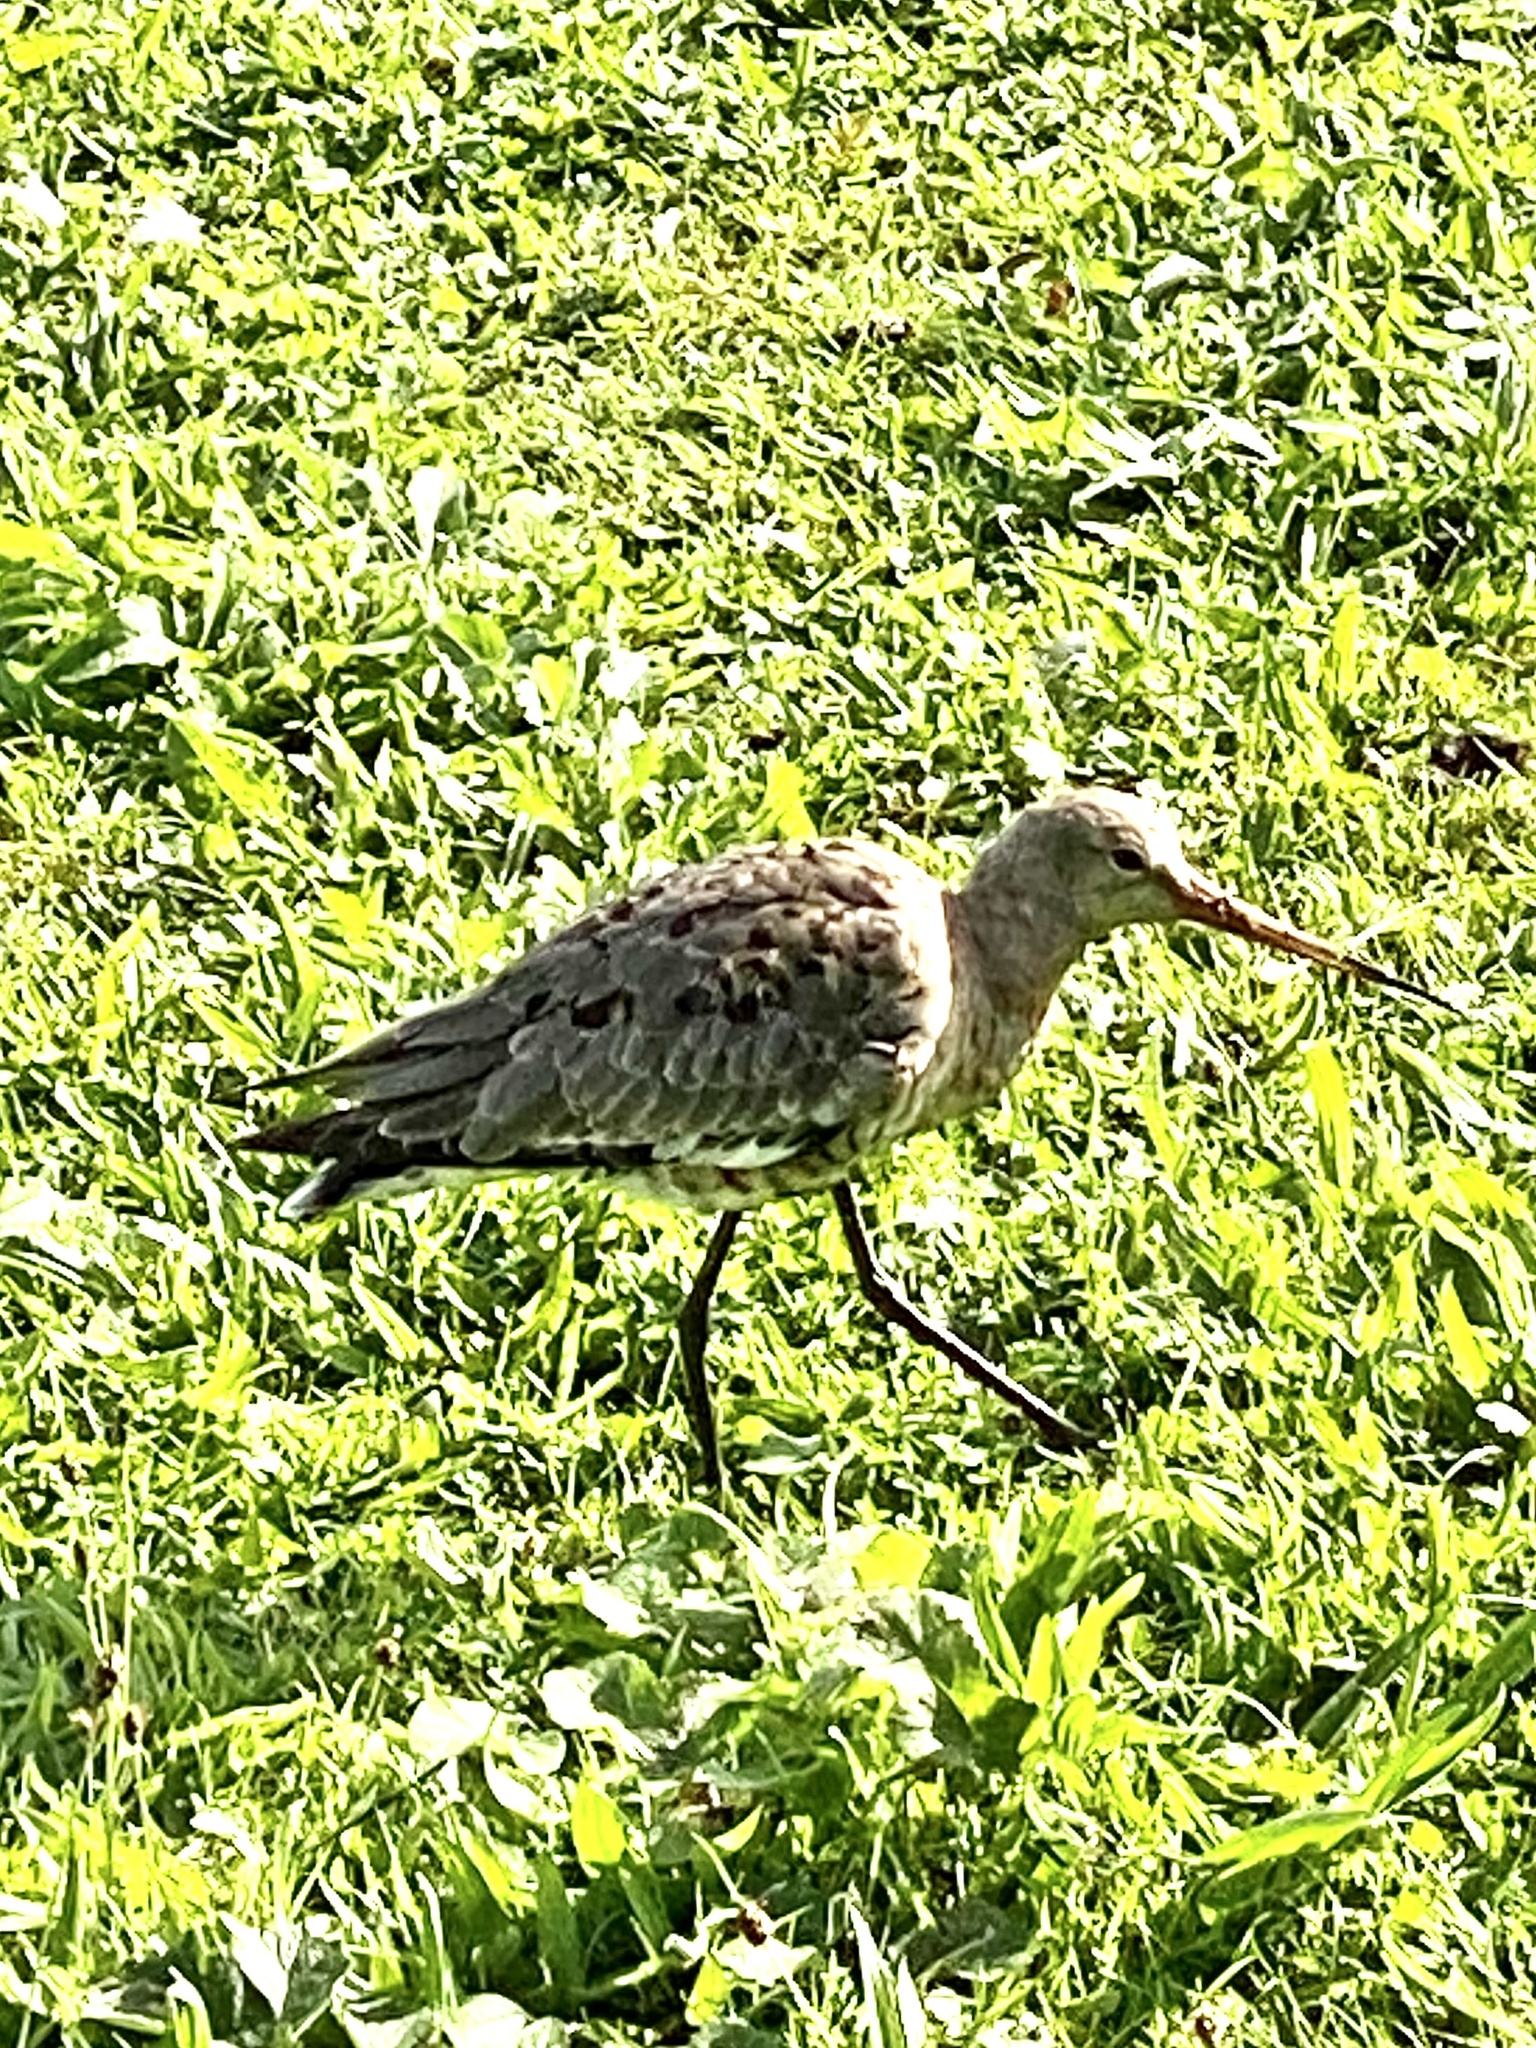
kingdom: Animalia
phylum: Chordata
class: Aves
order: Charadriiformes
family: Scolopacidae
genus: Limosa
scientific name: Limosa limosa
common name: Black-tailed godwit
